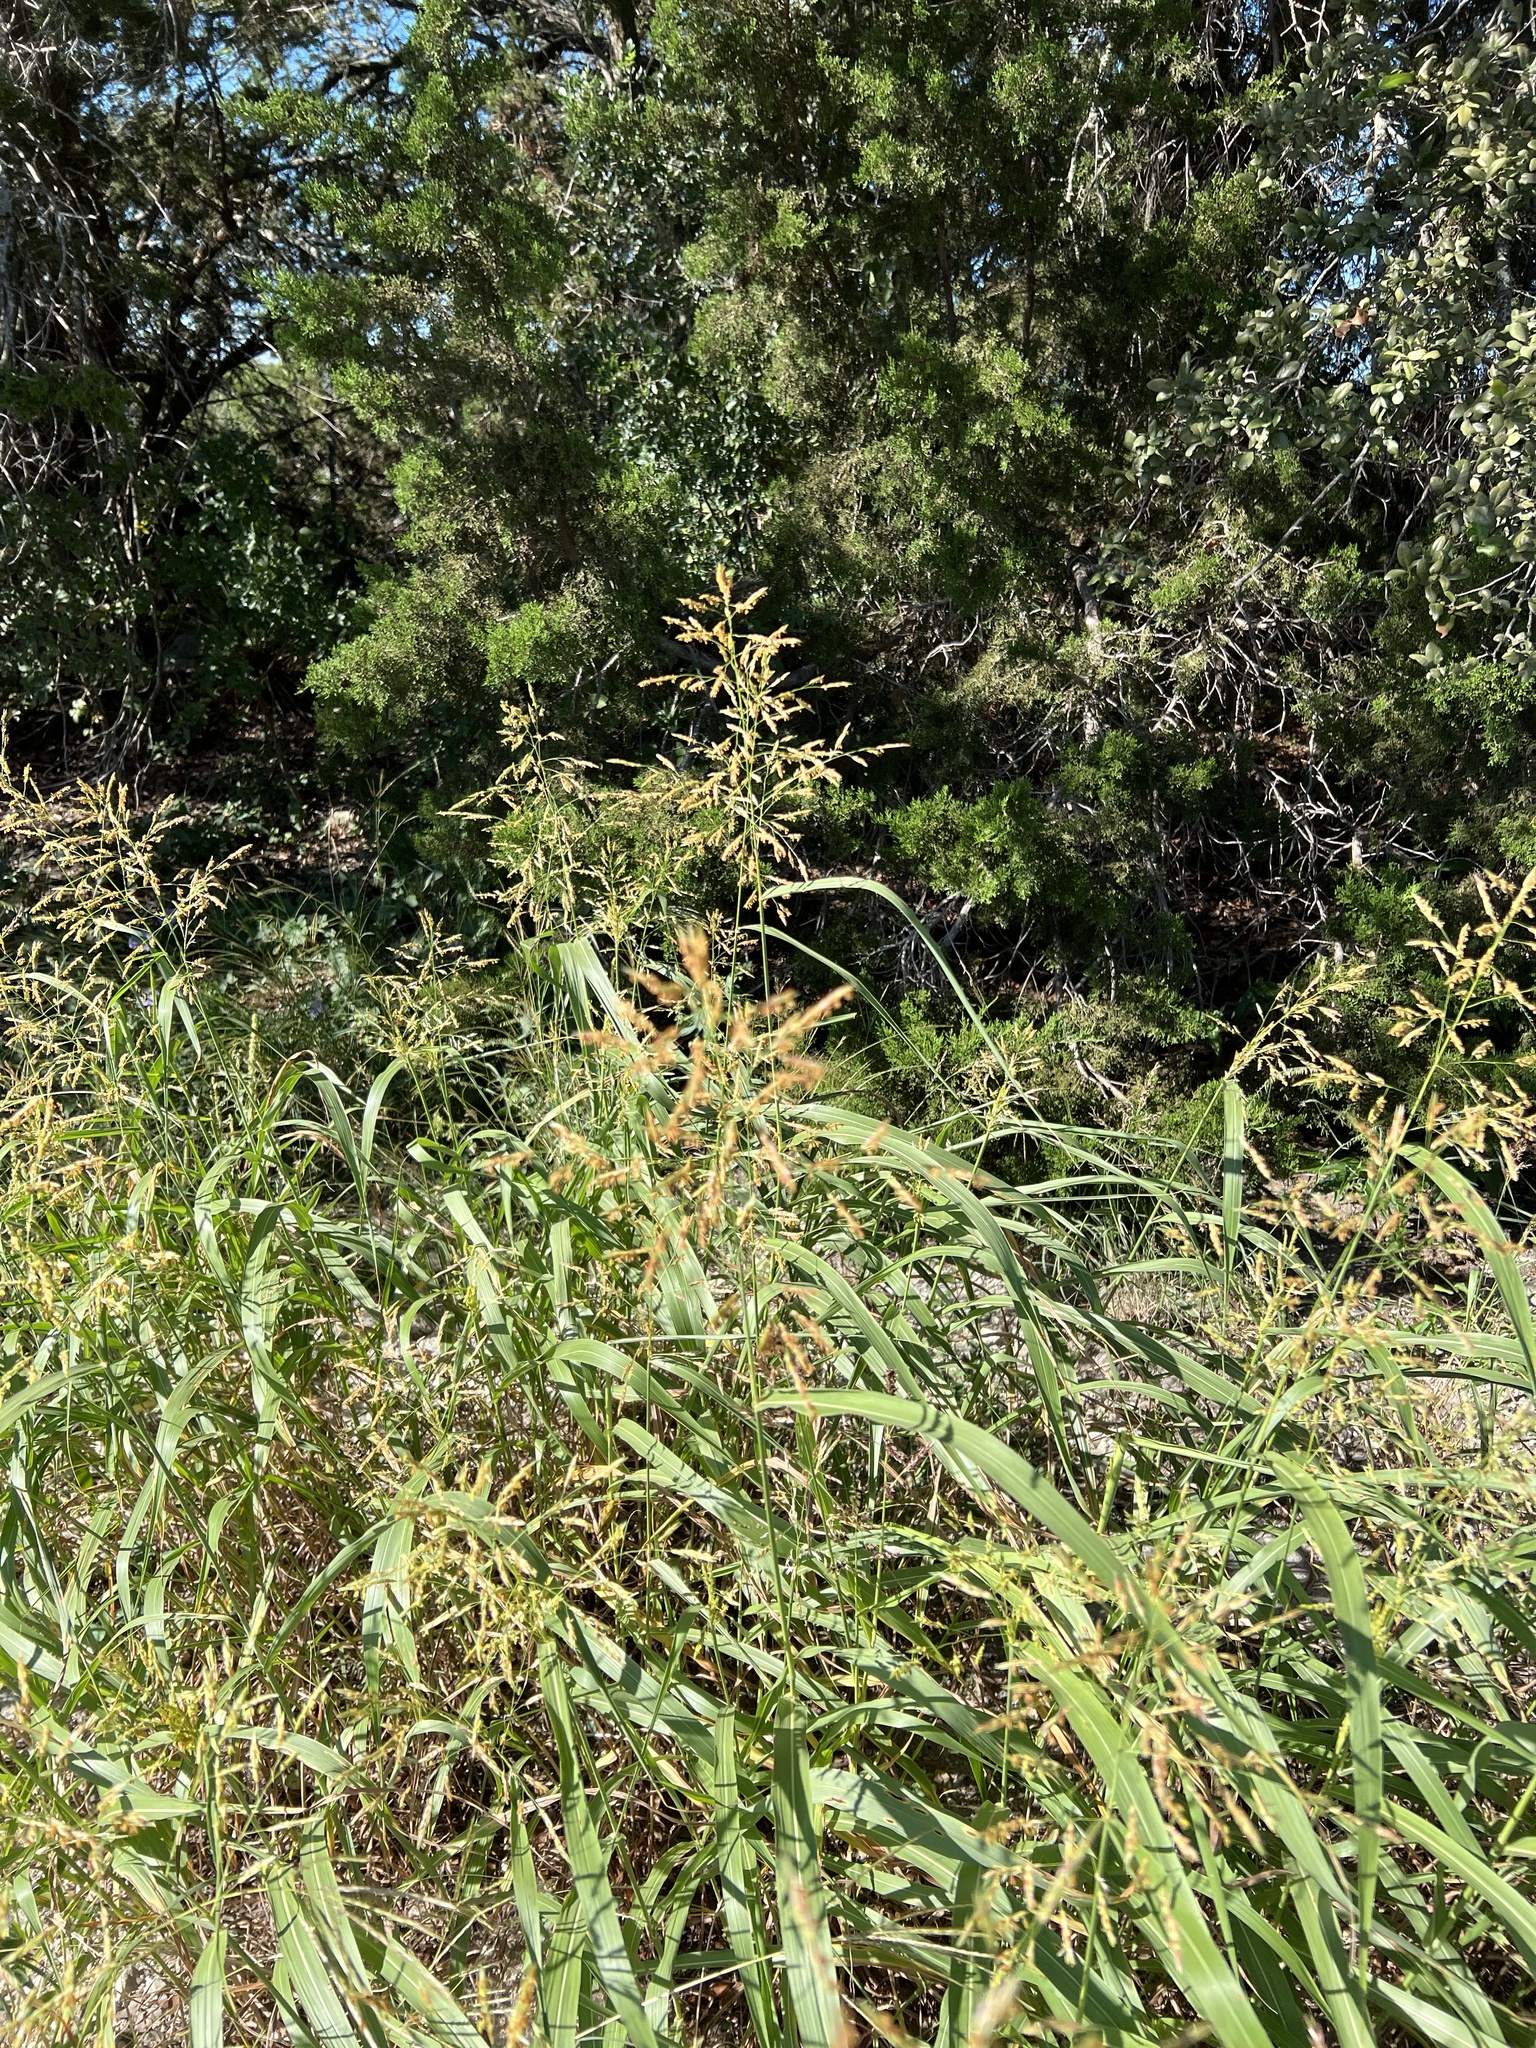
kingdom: Plantae
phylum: Tracheophyta
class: Liliopsida
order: Poales
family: Poaceae
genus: Sorghum
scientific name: Sorghum halepense
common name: Johnson-grass
